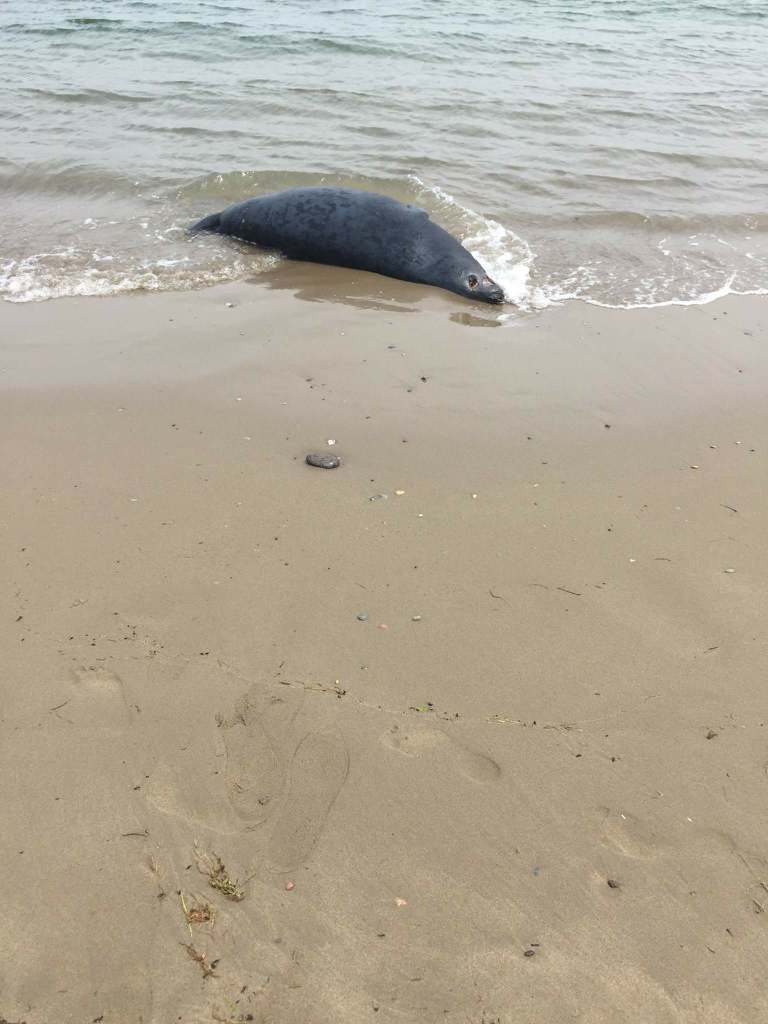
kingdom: Animalia
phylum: Chordata
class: Mammalia
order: Carnivora
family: Phocidae
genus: Halichoerus
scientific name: Halichoerus grypus
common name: Grey seal
